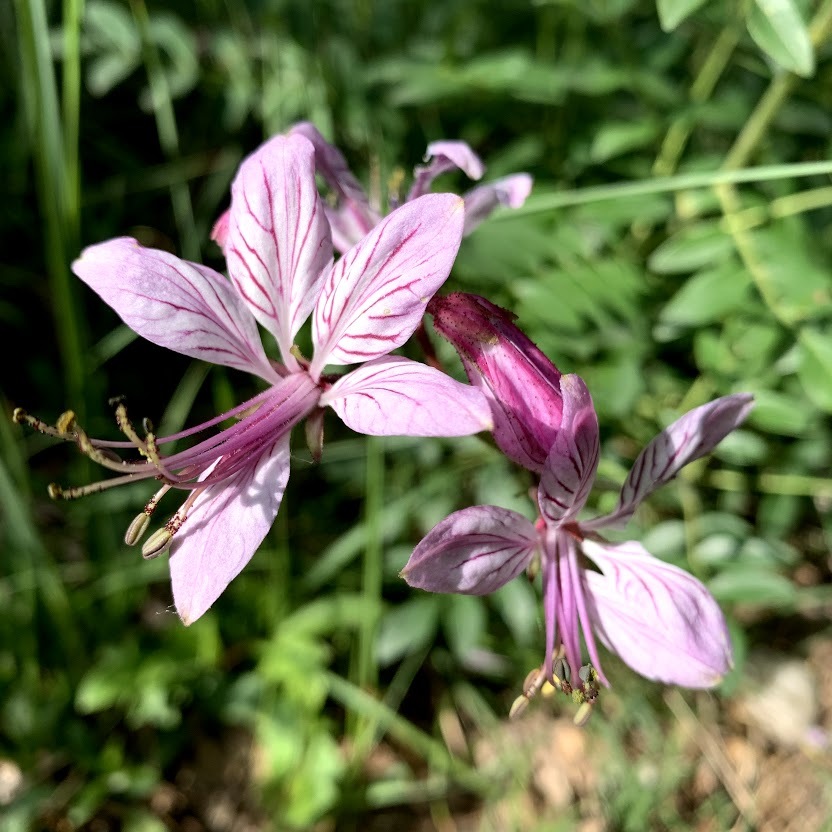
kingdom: Plantae
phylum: Tracheophyta
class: Magnoliopsida
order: Sapindales
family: Rutaceae
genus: Dictamnus
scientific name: Dictamnus albus
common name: Gasplant
